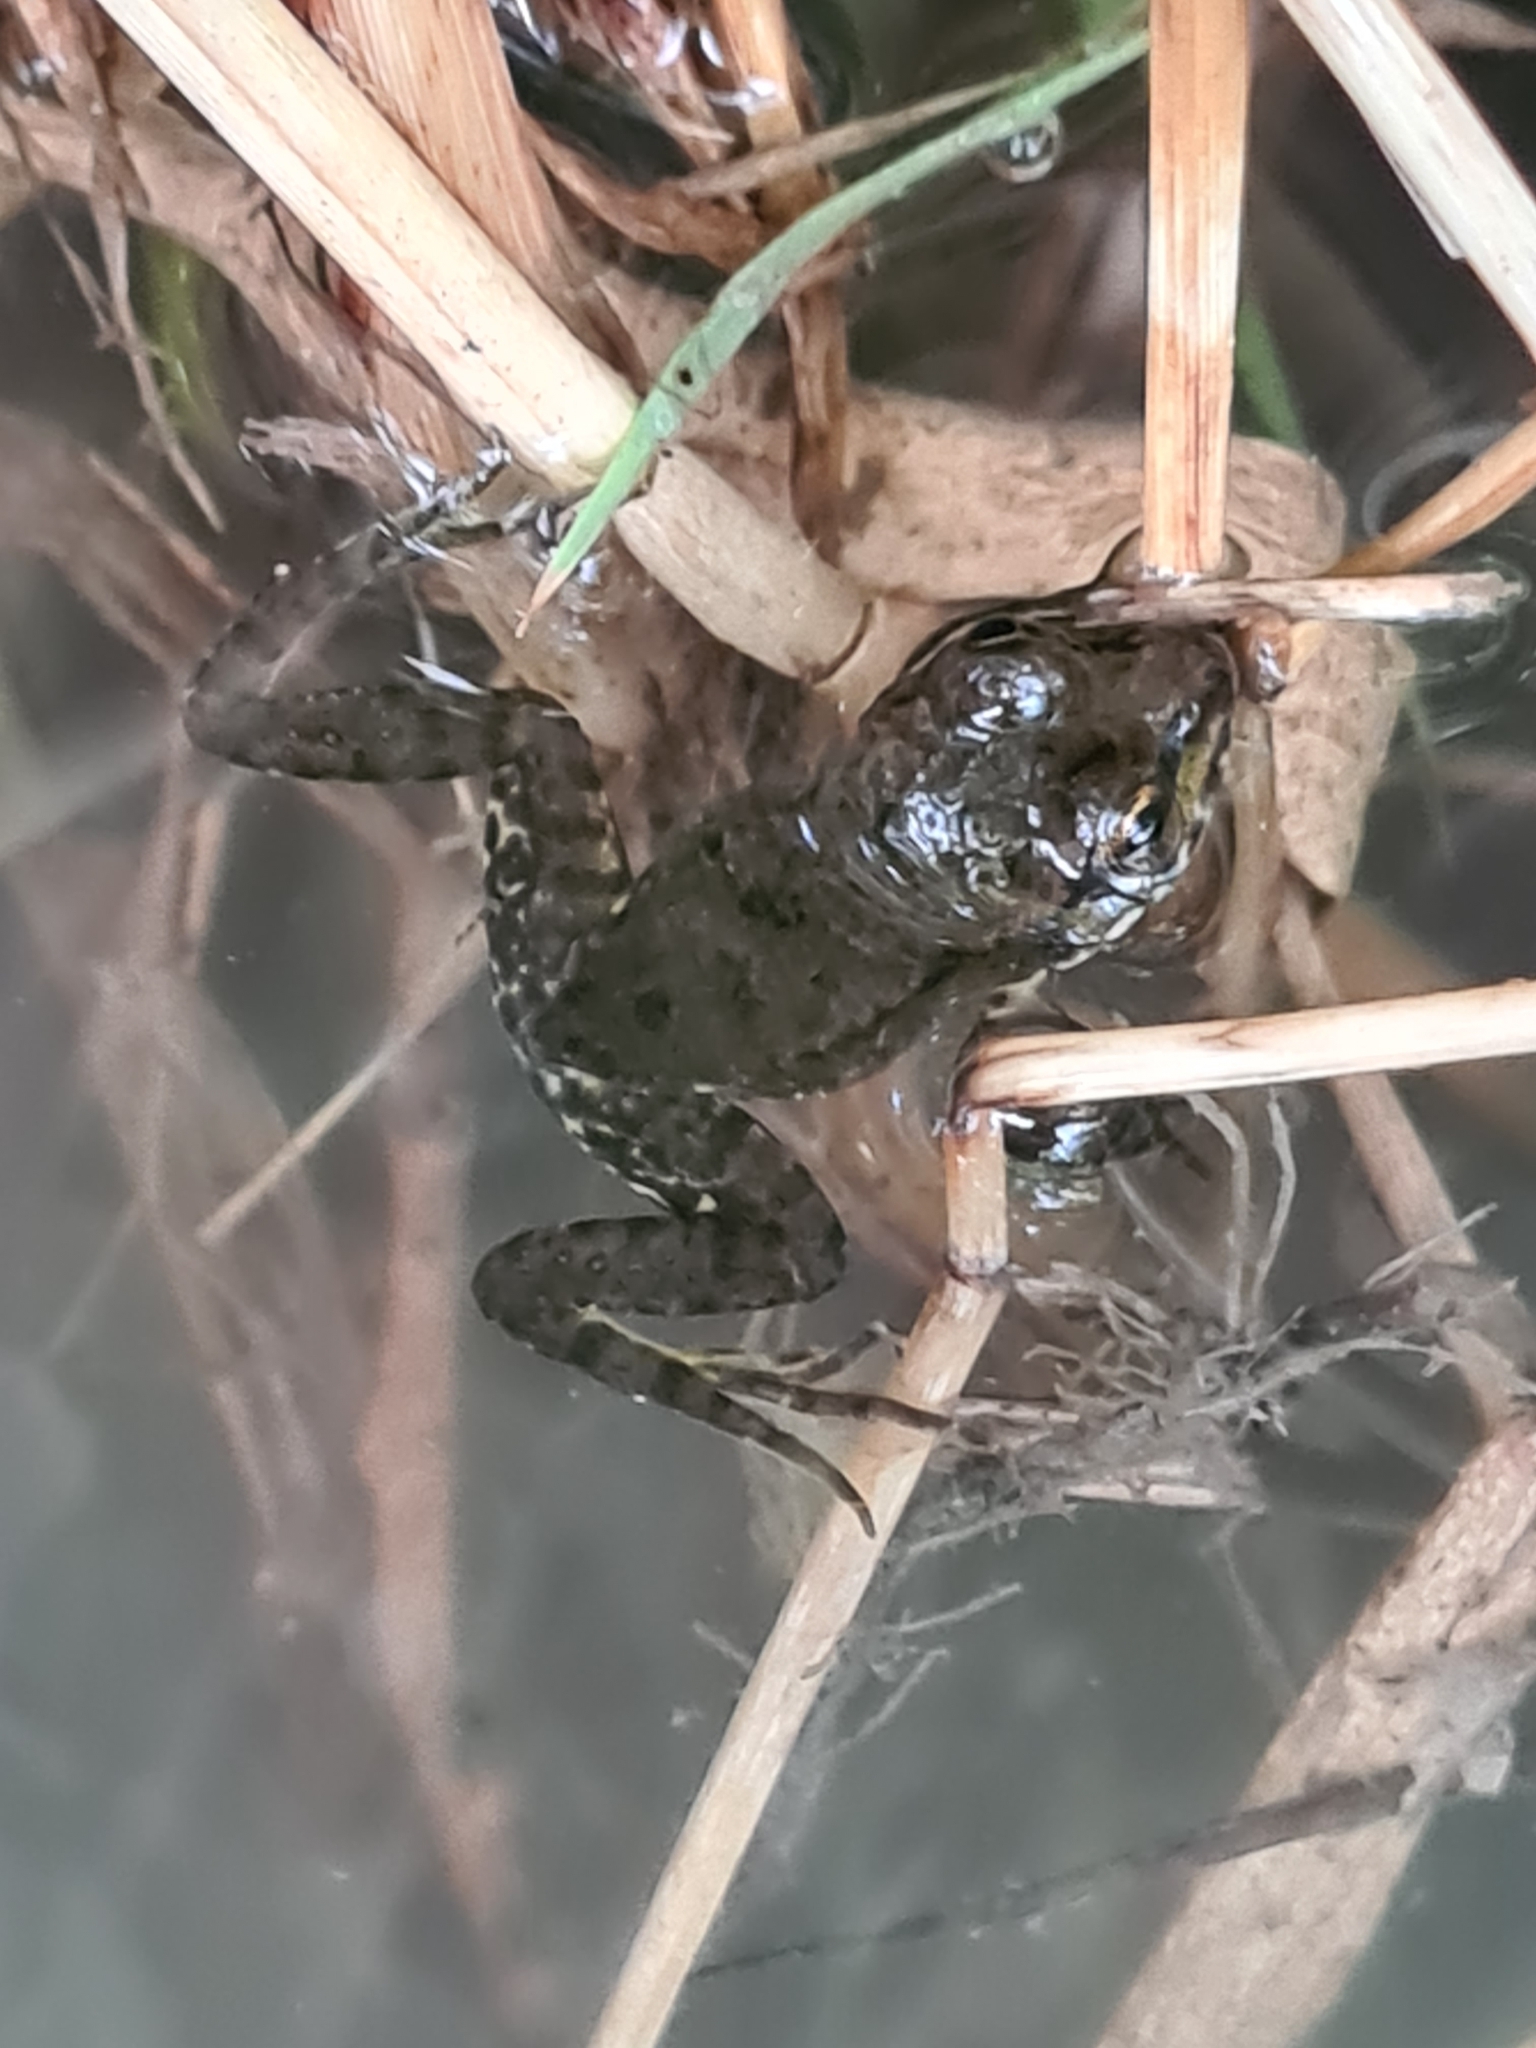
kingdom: Animalia
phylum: Chordata
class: Amphibia
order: Anura
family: Ranidae
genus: Pelophylax
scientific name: Pelophylax
